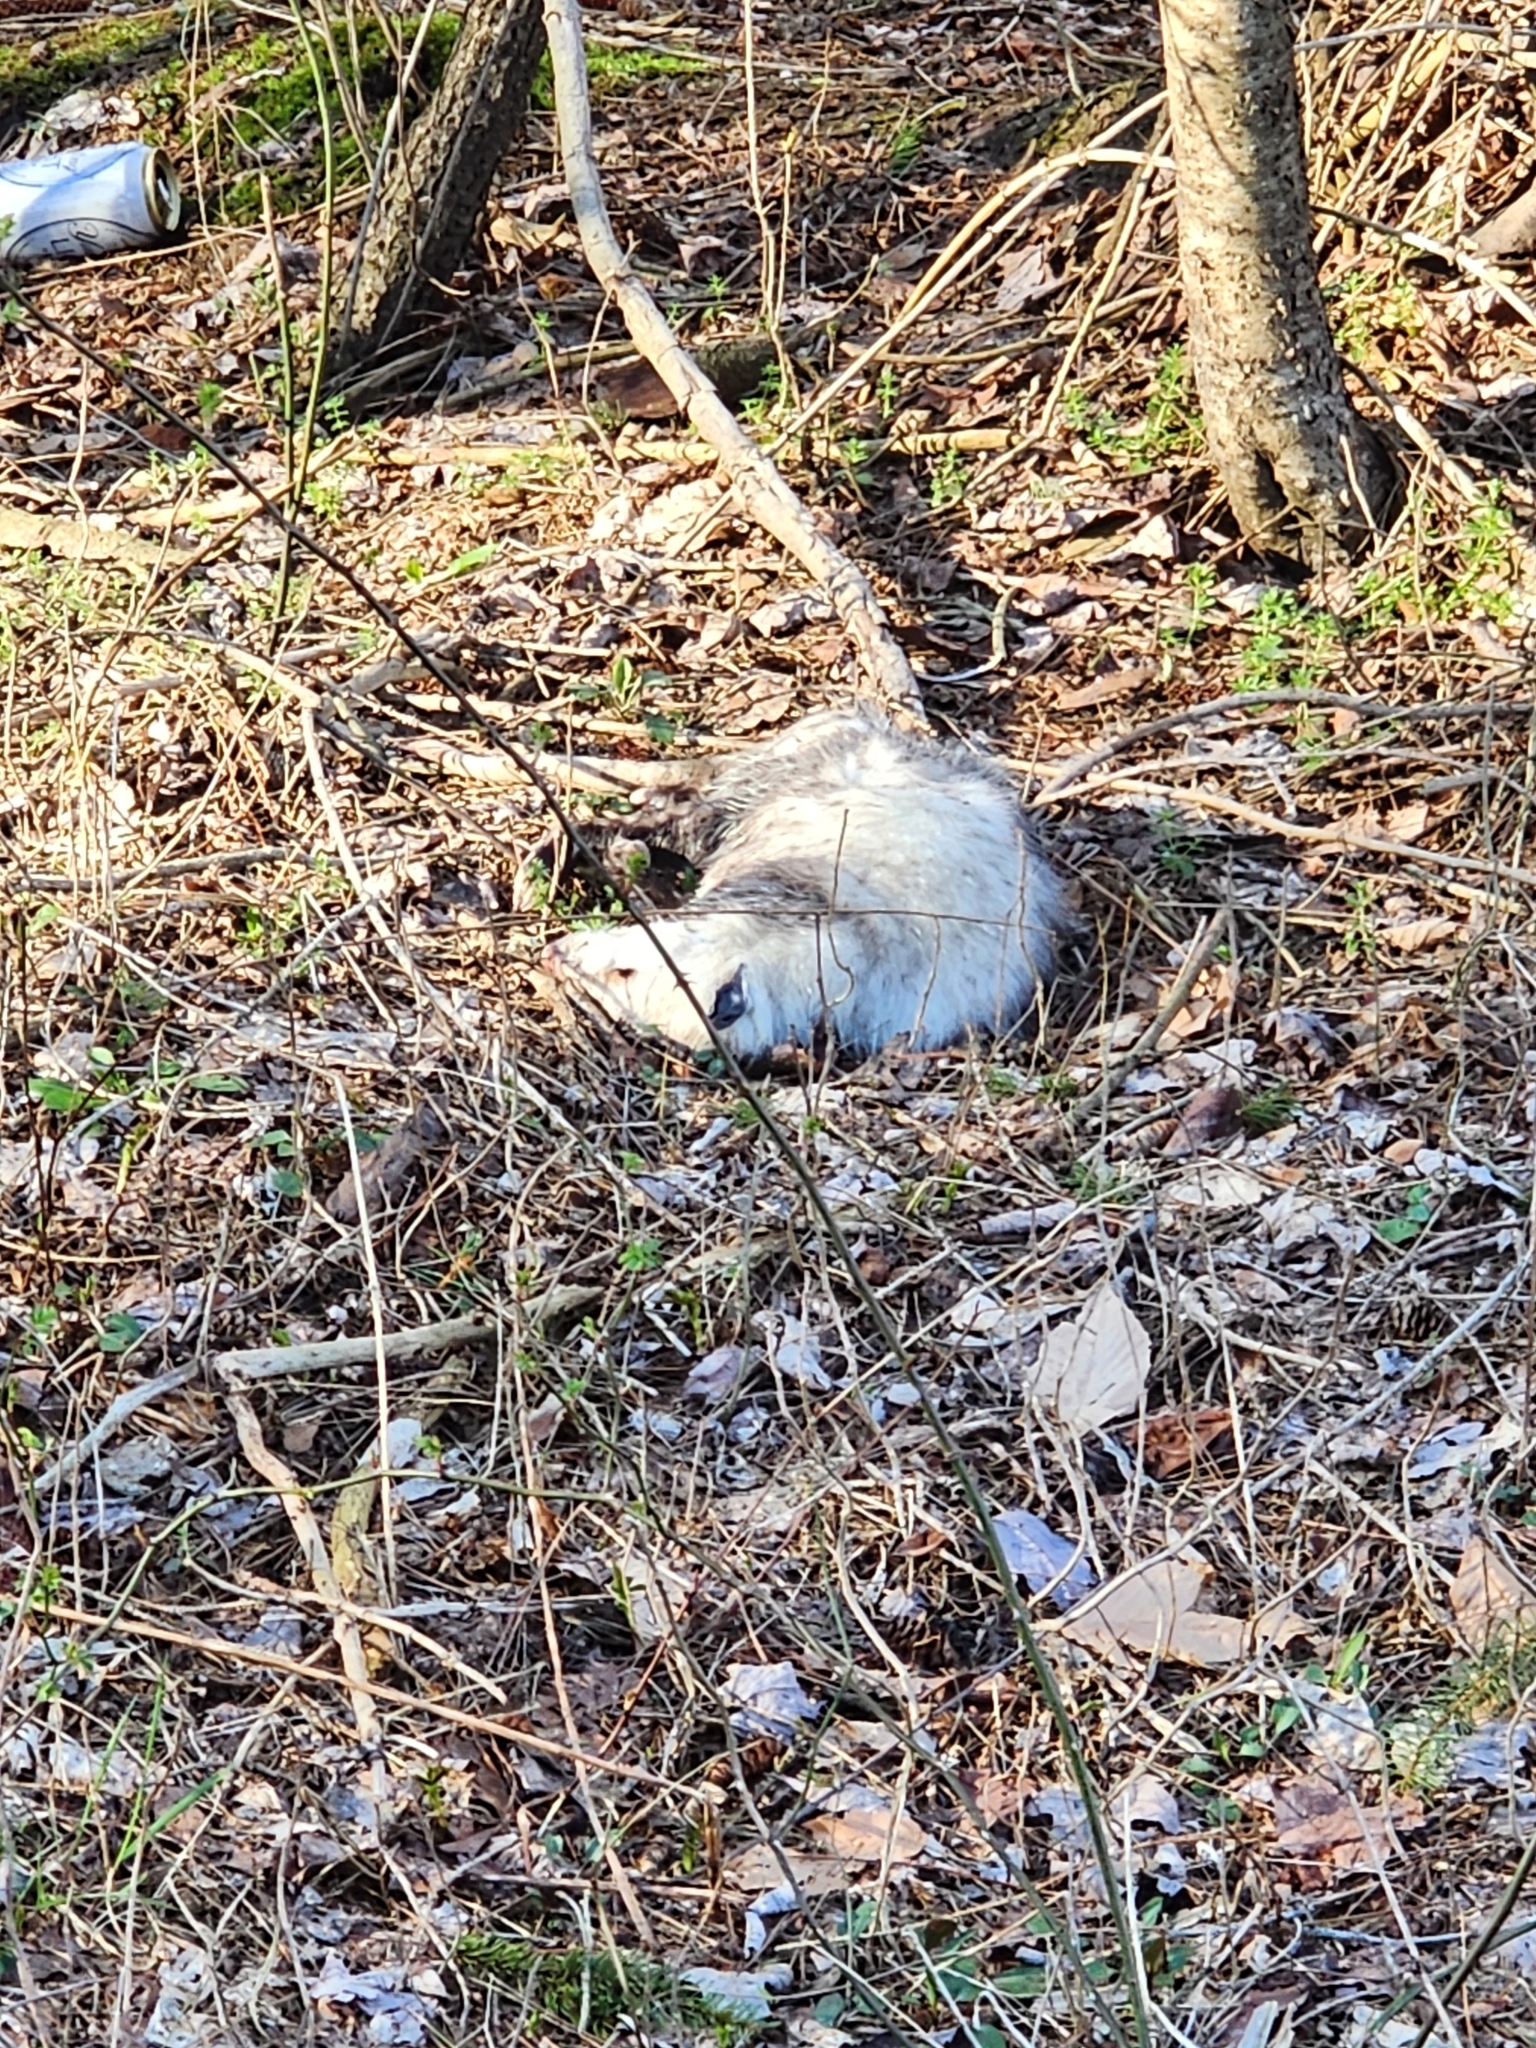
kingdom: Animalia
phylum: Chordata
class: Mammalia
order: Didelphimorphia
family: Didelphidae
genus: Didelphis
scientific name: Didelphis virginiana
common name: Virginia opossum
